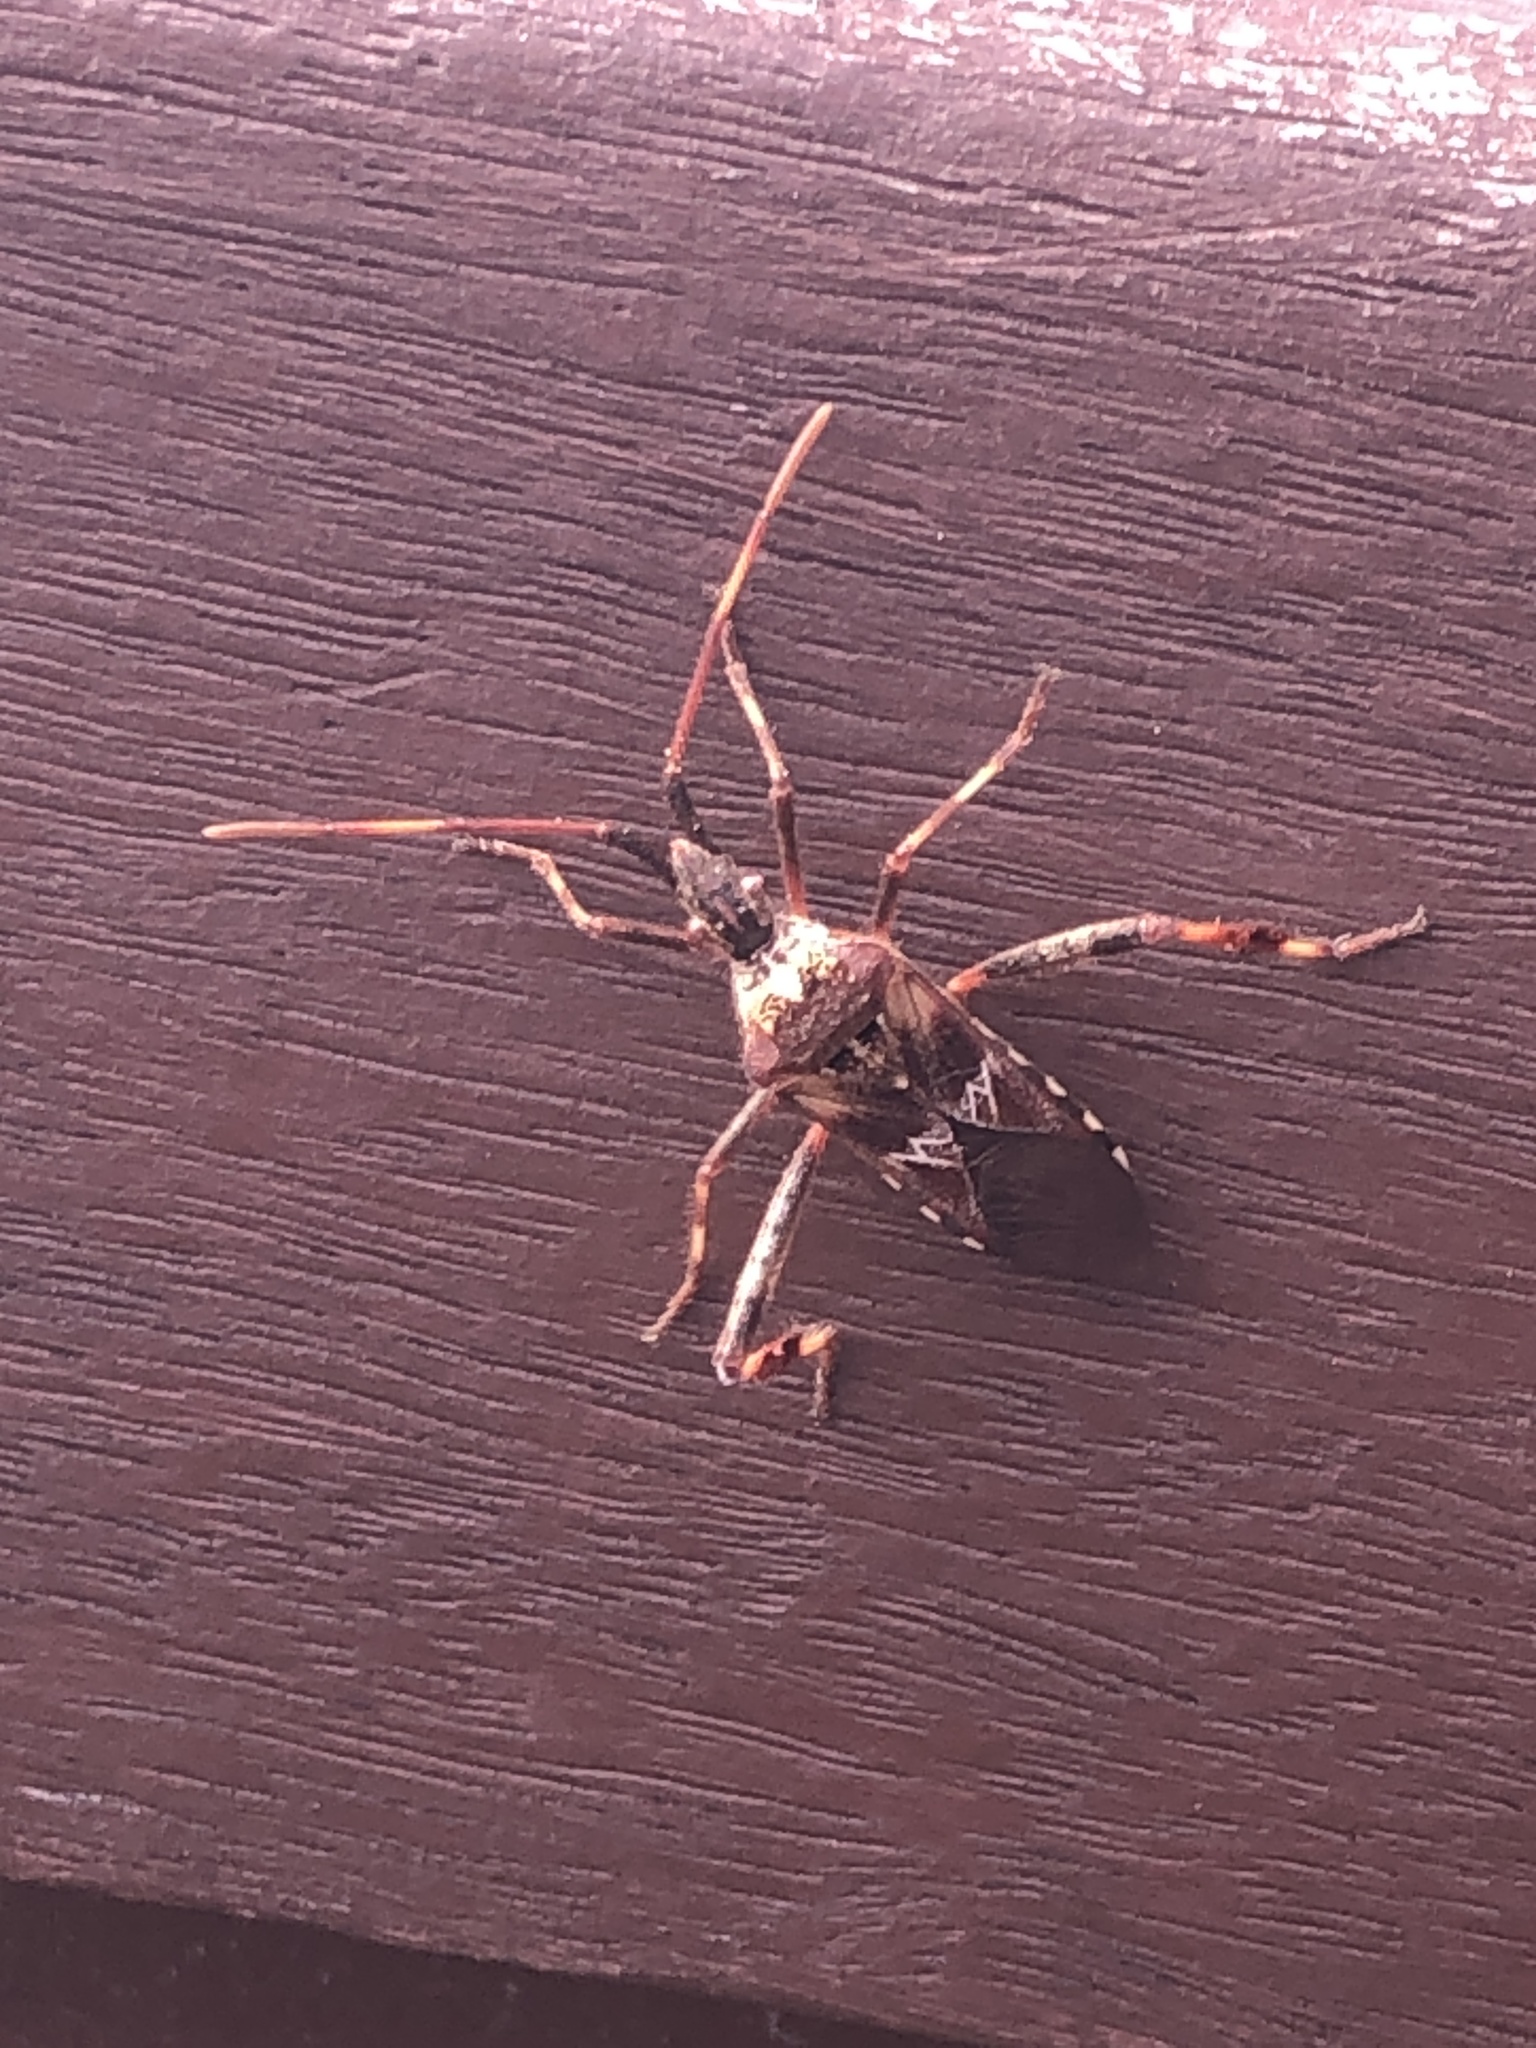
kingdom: Animalia
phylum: Arthropoda
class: Insecta
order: Hemiptera
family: Coreidae
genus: Leptoglossus
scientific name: Leptoglossus occidentalis
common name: Western conifer-seed bug
